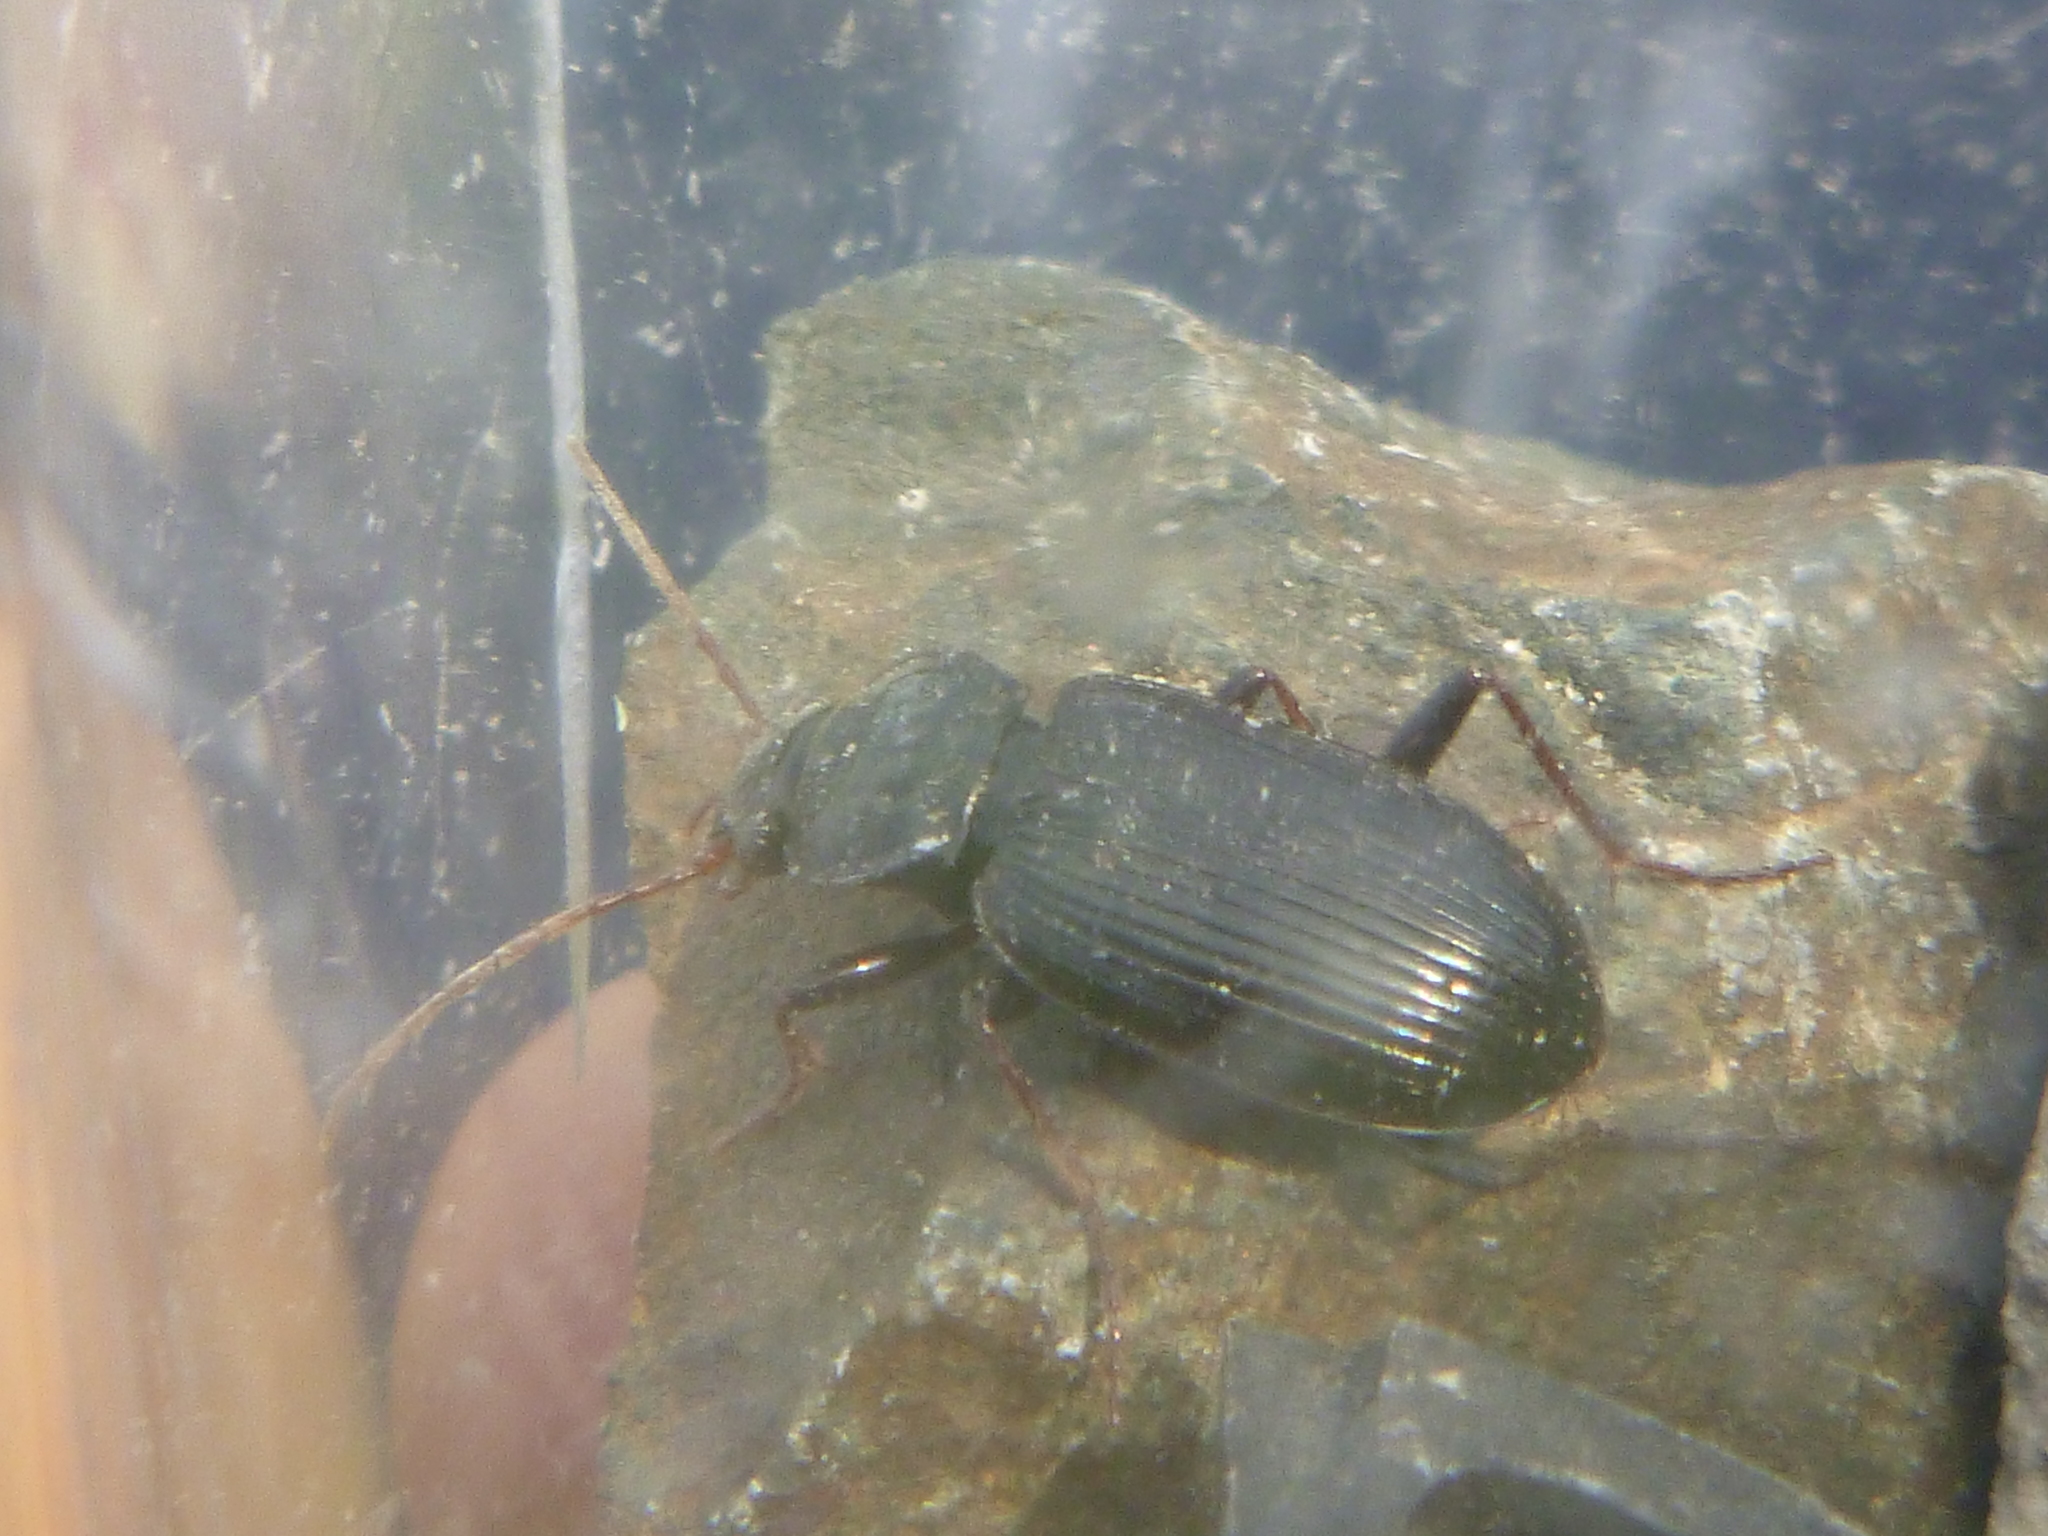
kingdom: Animalia
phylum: Arthropoda
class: Insecta
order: Coleoptera
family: Carabidae
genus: Nebria
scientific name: Nebria brevicollis
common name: Short-necked gazelle beetle
